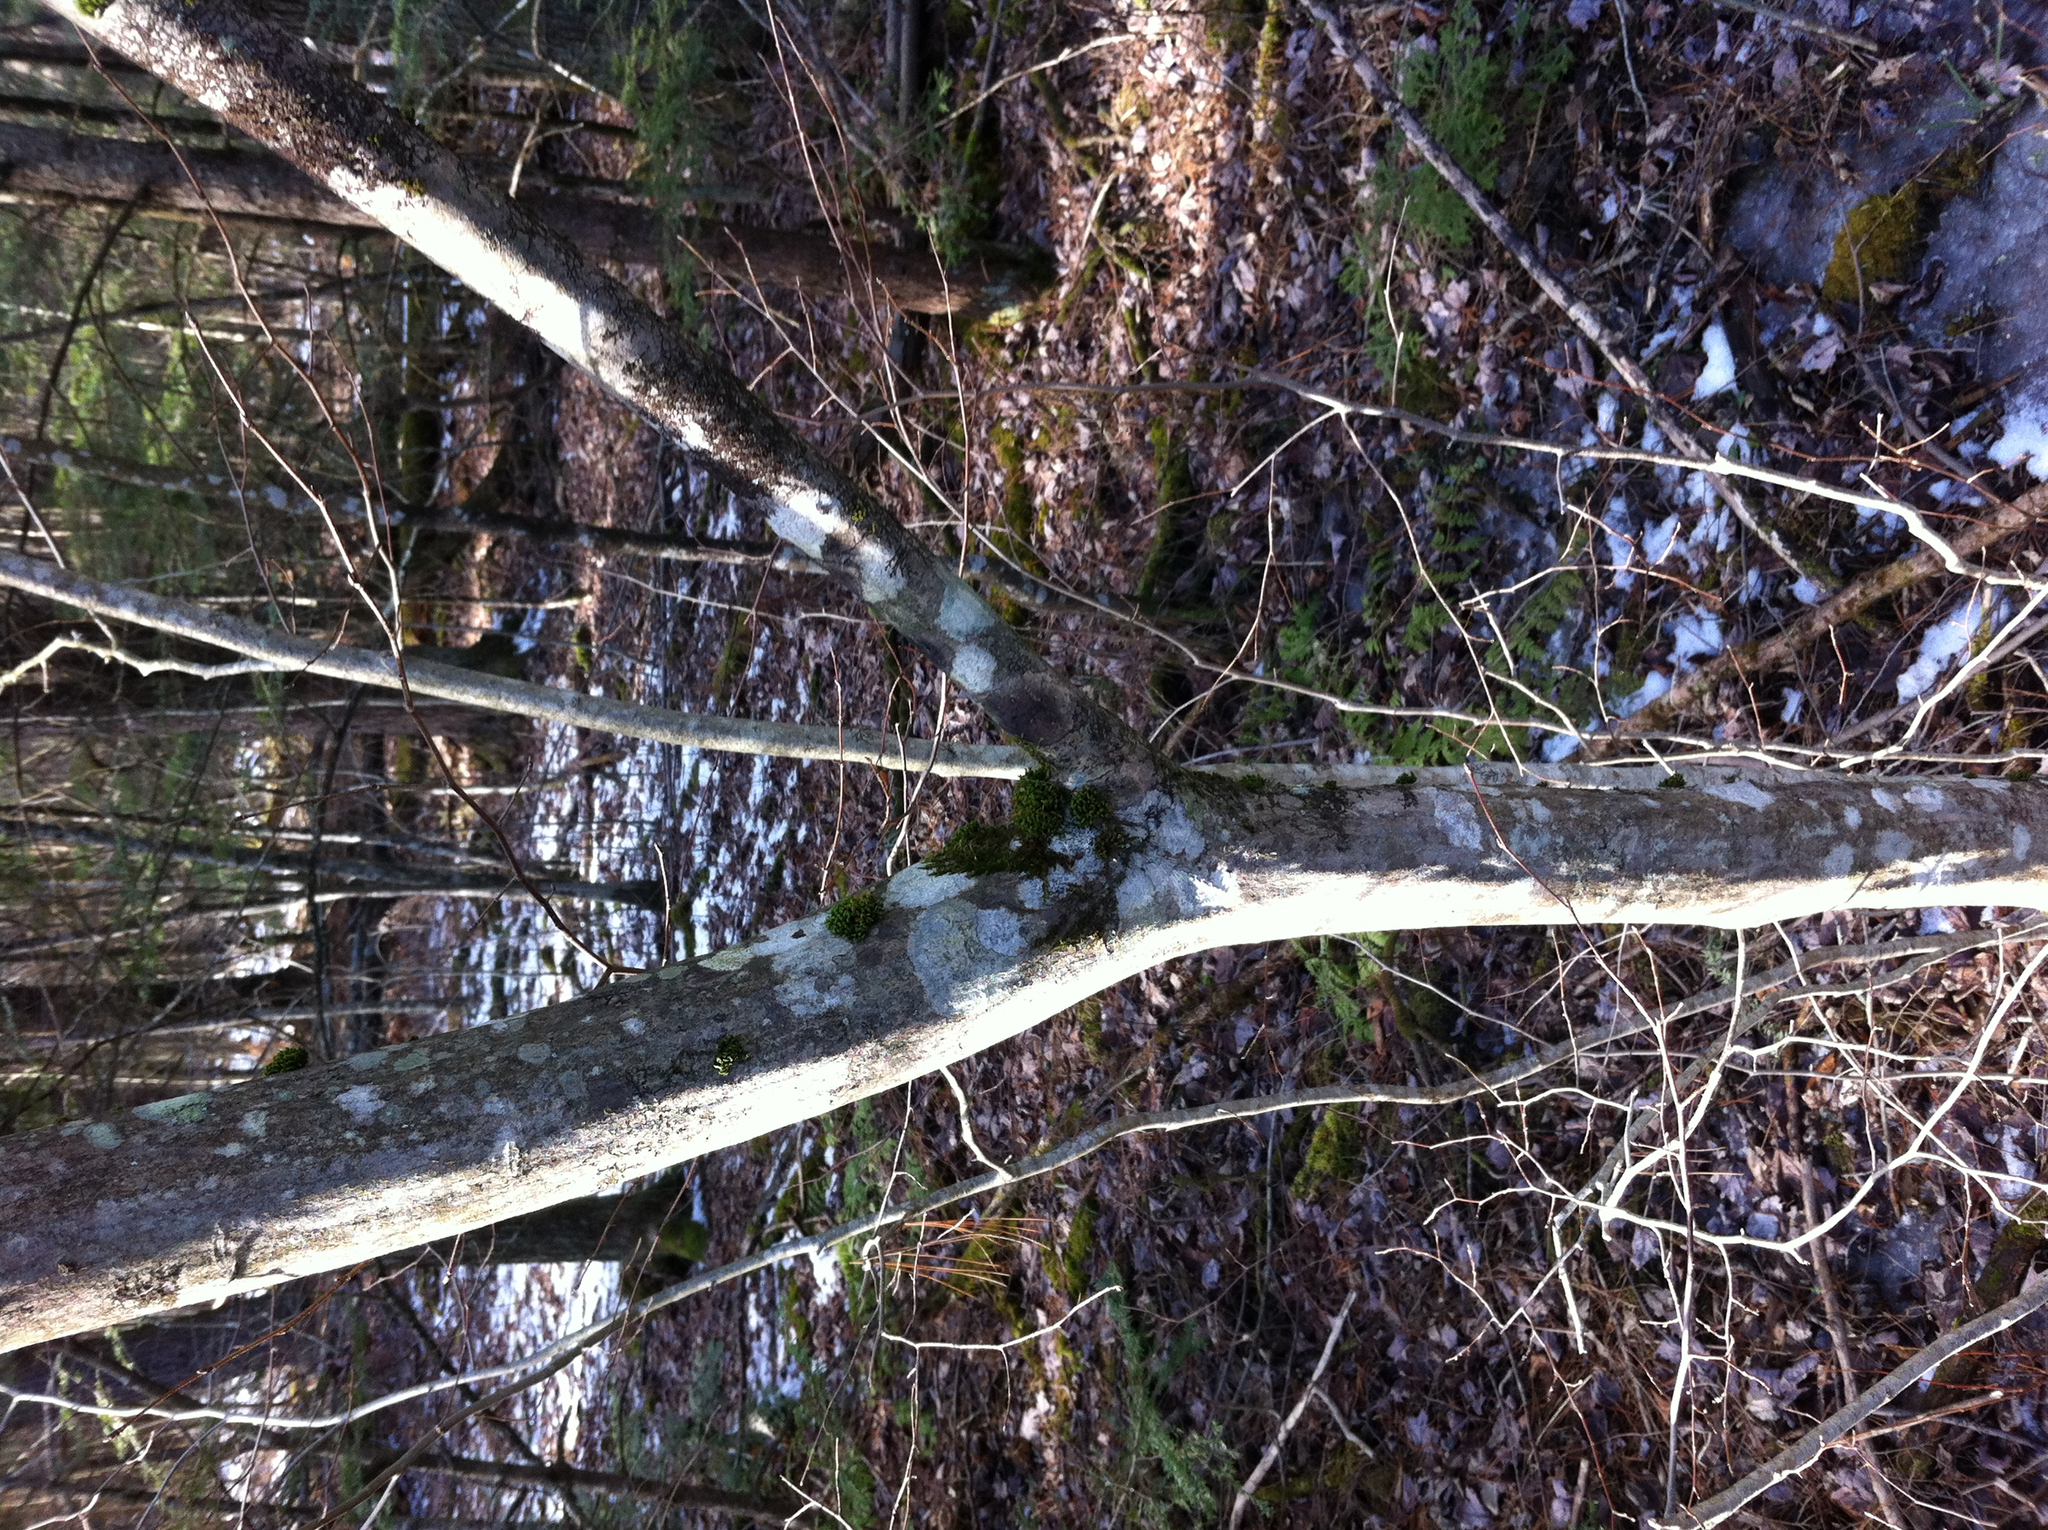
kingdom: Plantae
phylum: Tracheophyta
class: Magnoliopsida
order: Fagales
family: Betulaceae
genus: Carpinus
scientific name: Carpinus caroliniana
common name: American hornbeam
